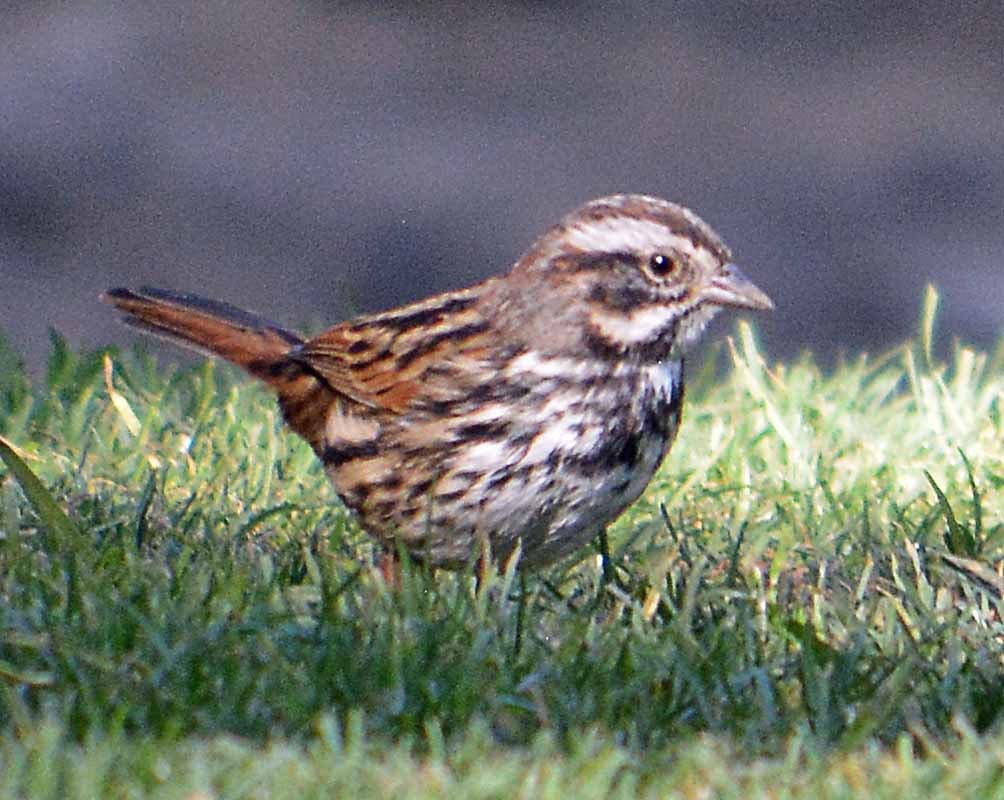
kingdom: Animalia
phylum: Chordata
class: Aves
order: Passeriformes
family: Passerellidae
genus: Melospiza
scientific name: Melospiza melodia
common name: Song sparrow
